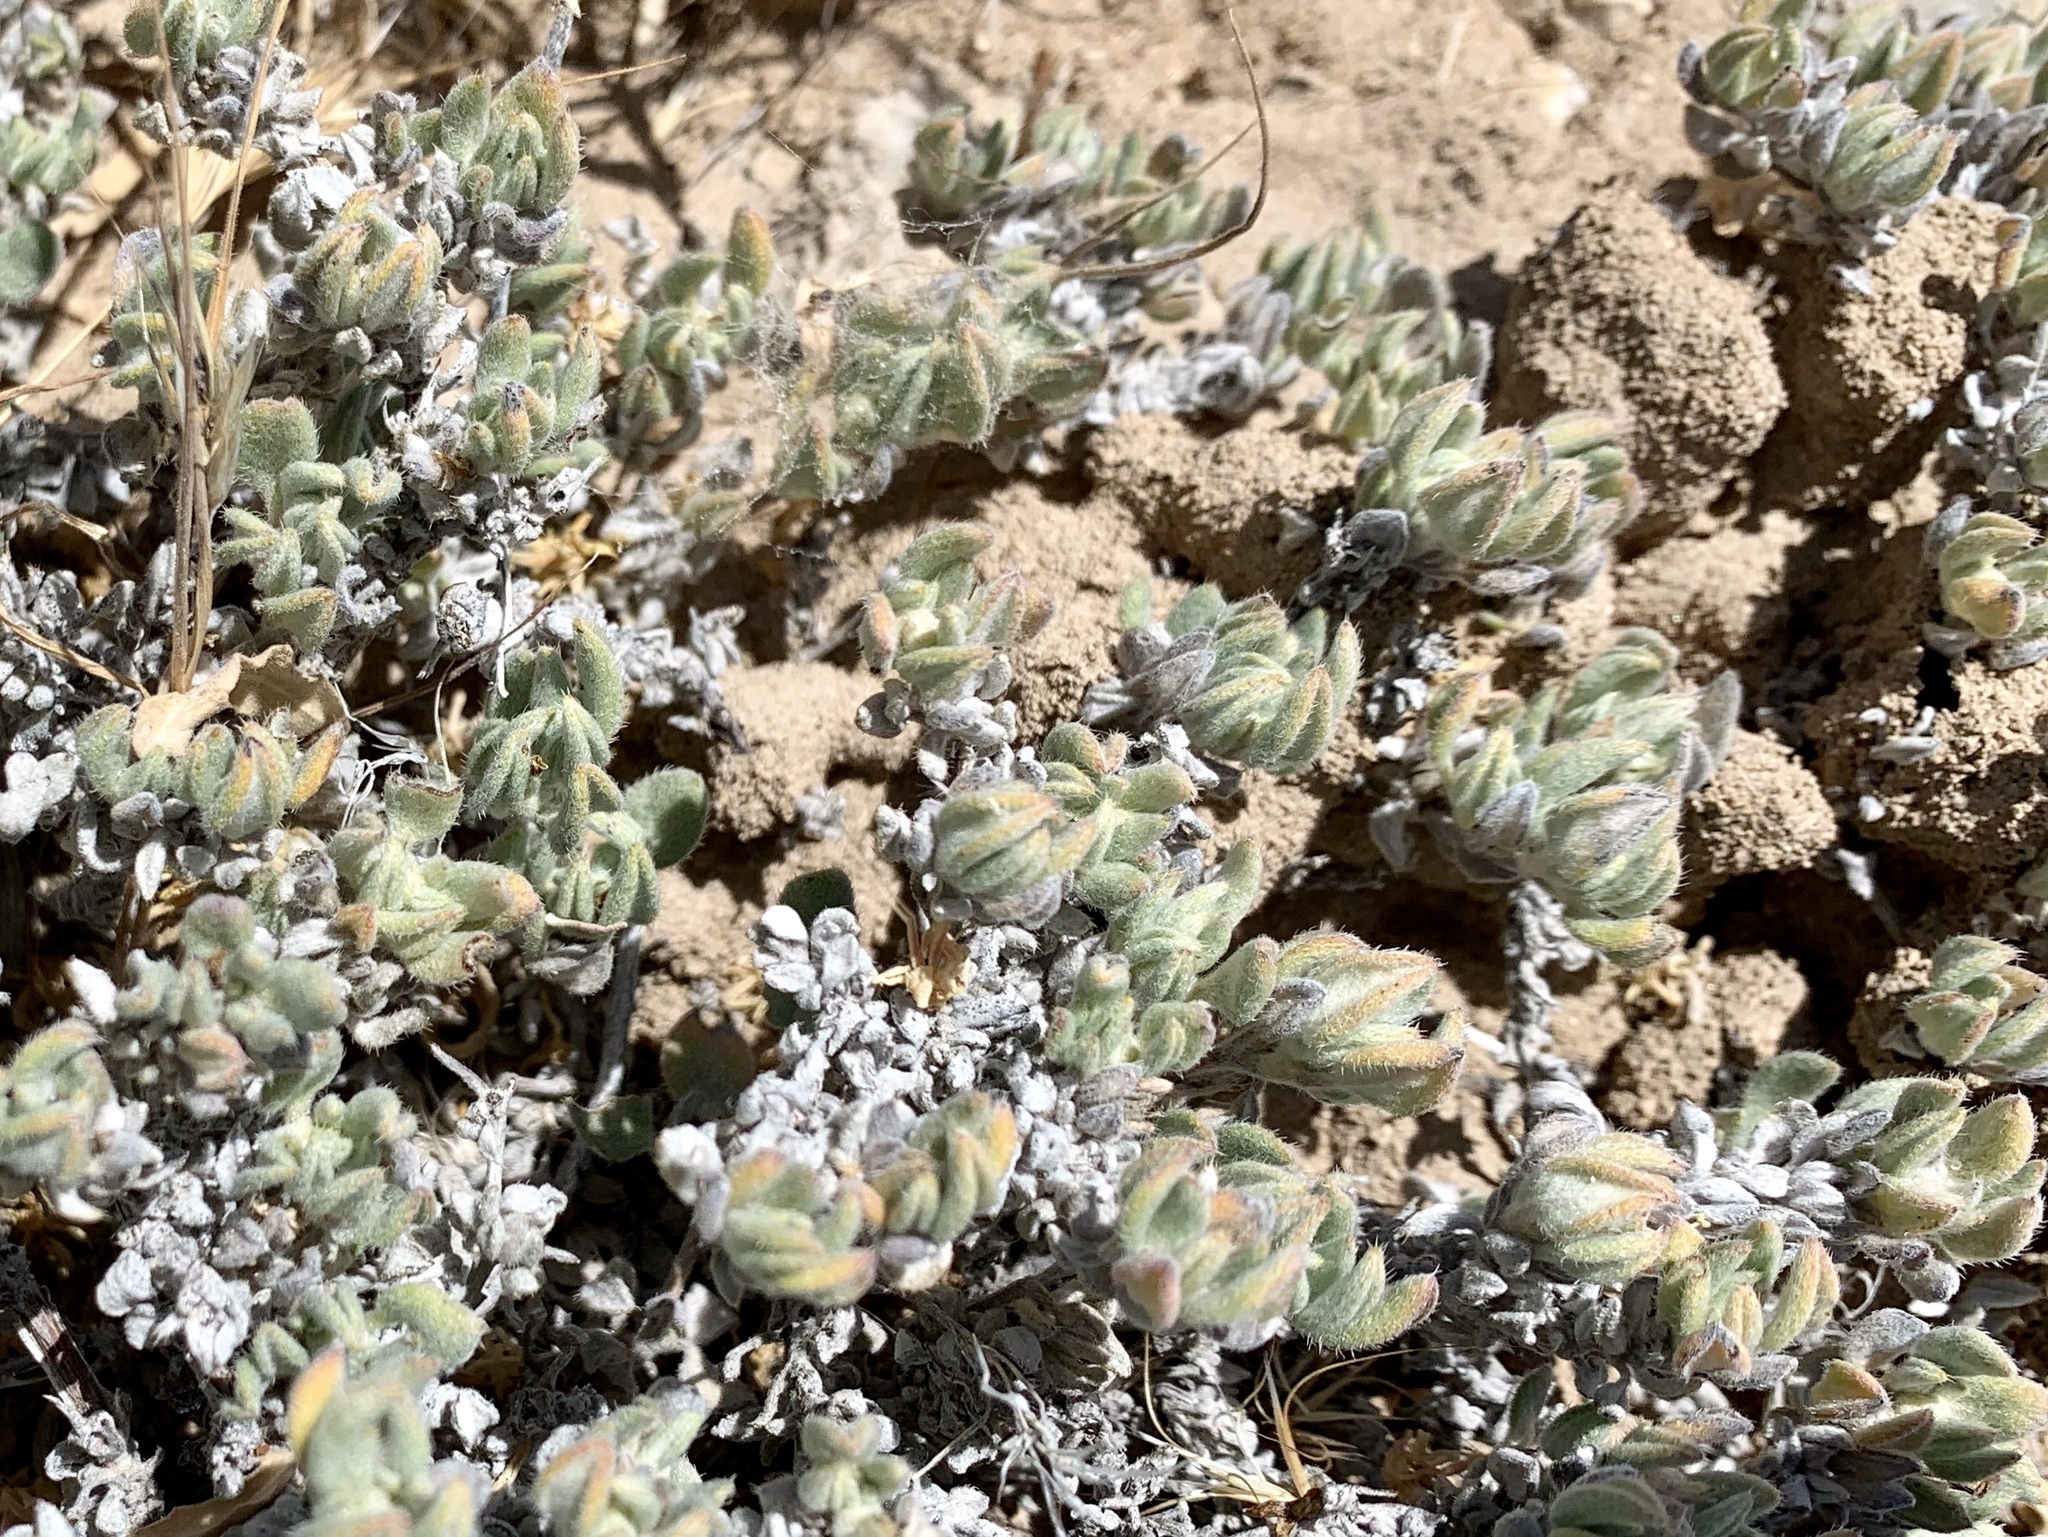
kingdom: Plantae
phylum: Tracheophyta
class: Magnoliopsida
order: Boraginales
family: Ehretiaceae
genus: Tiquilia
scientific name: Tiquilia canescens
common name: Hairy tiquilia
